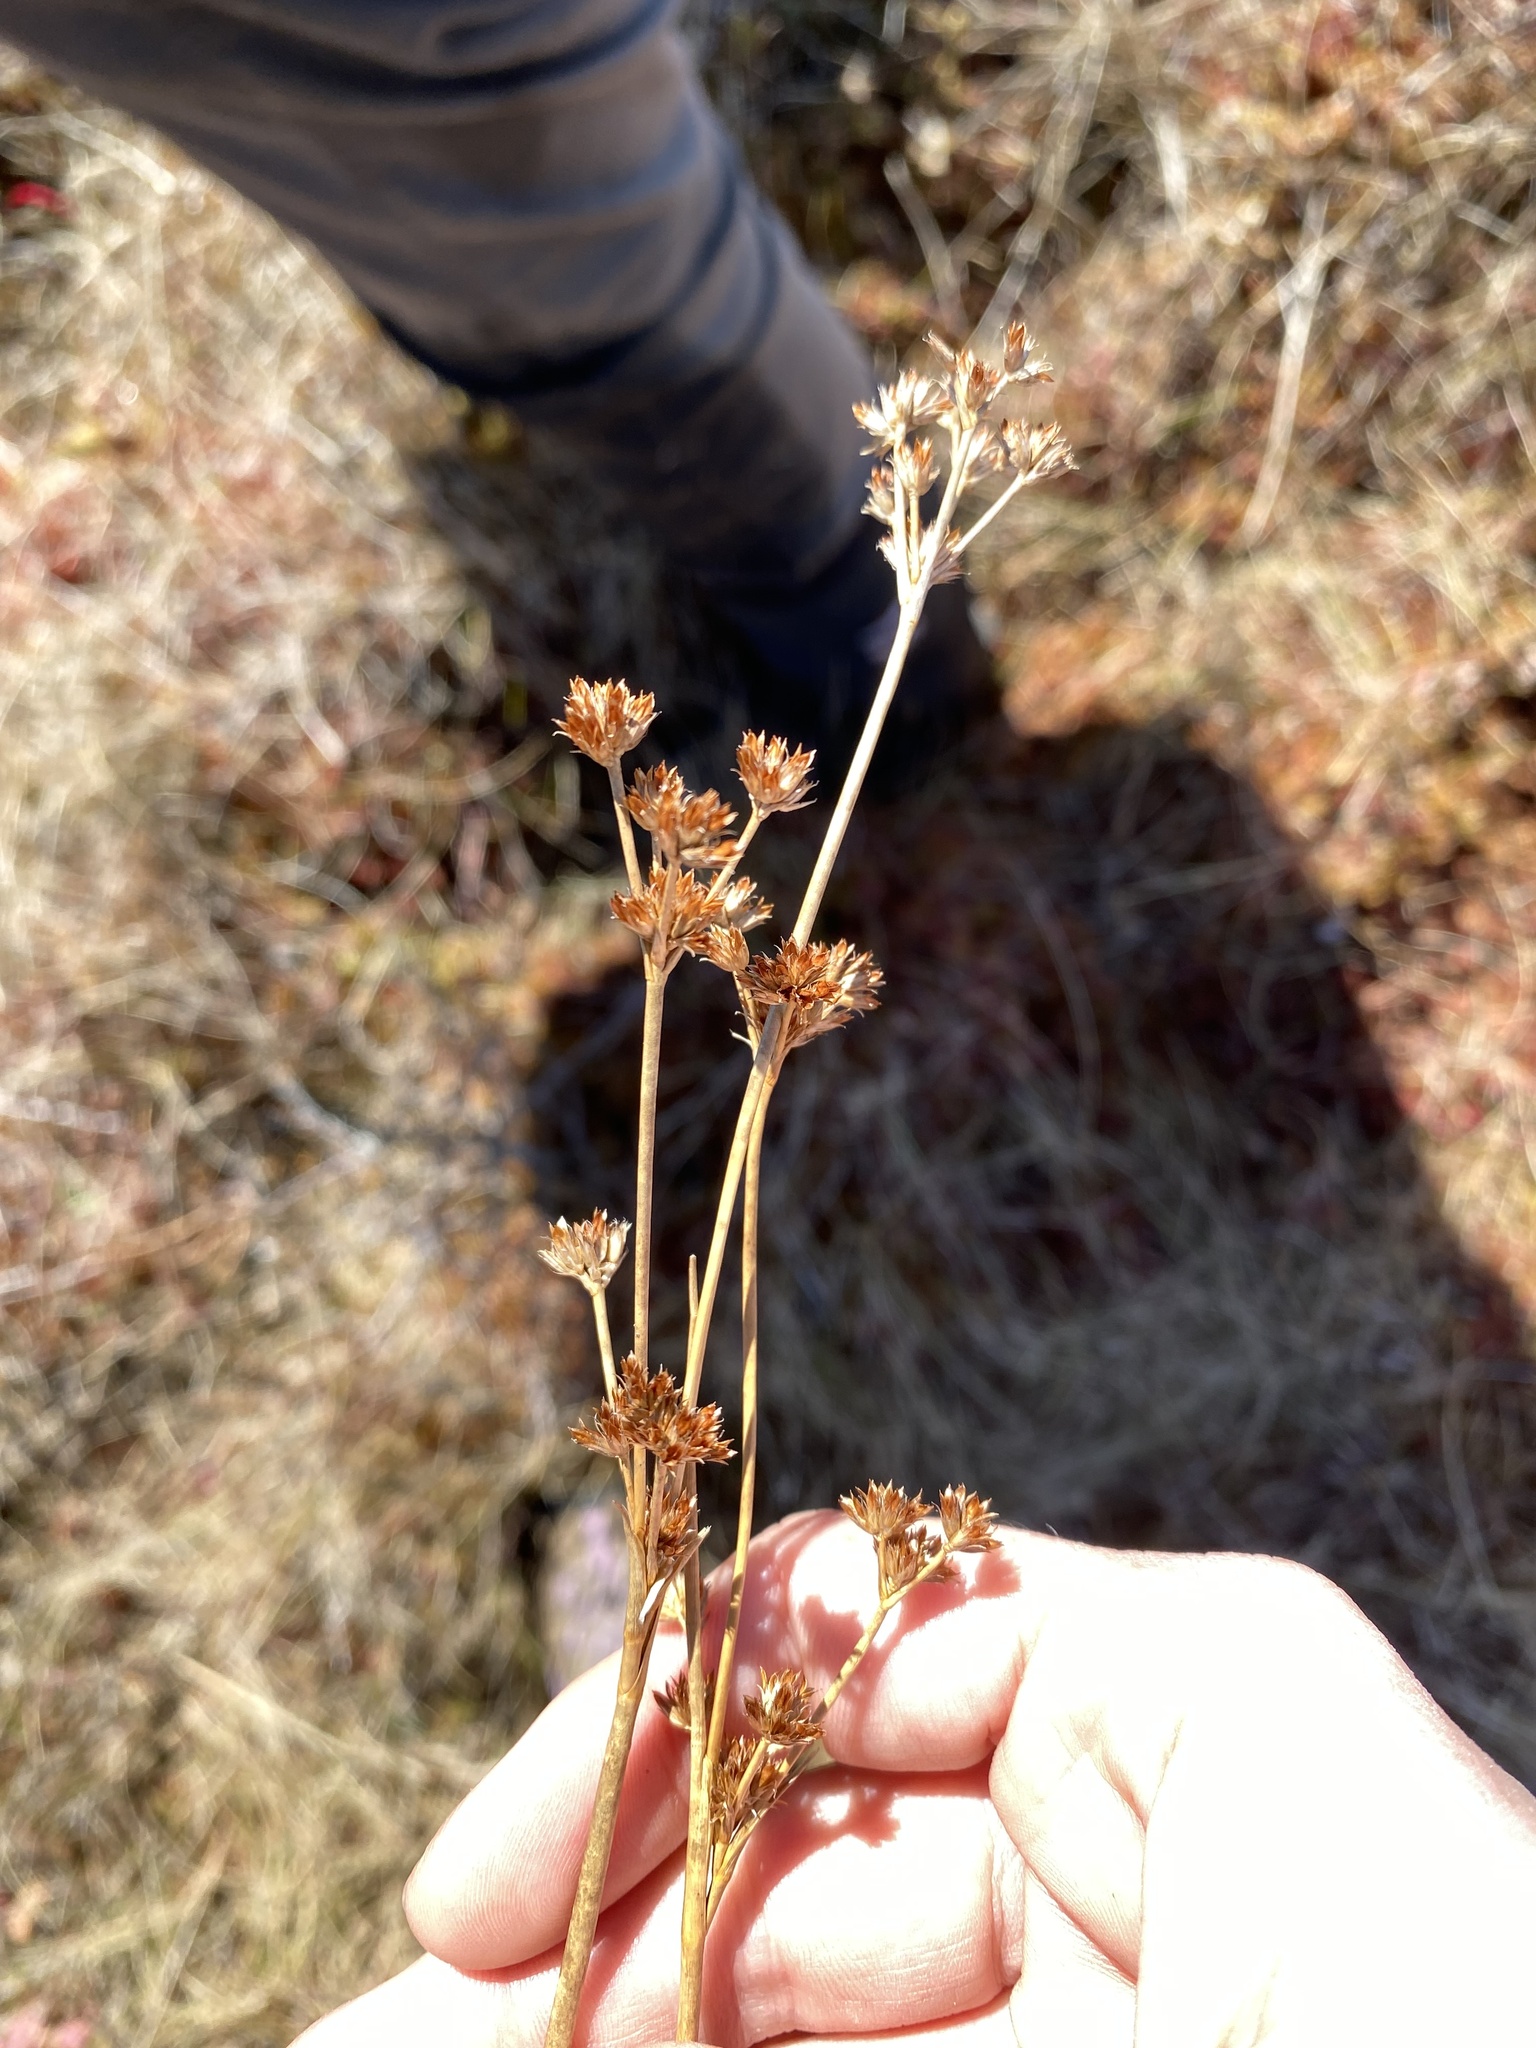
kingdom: Plantae
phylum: Tracheophyta
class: Liliopsida
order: Poales
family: Juncaceae
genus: Juncus
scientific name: Juncus canadensis
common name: Canada rush
